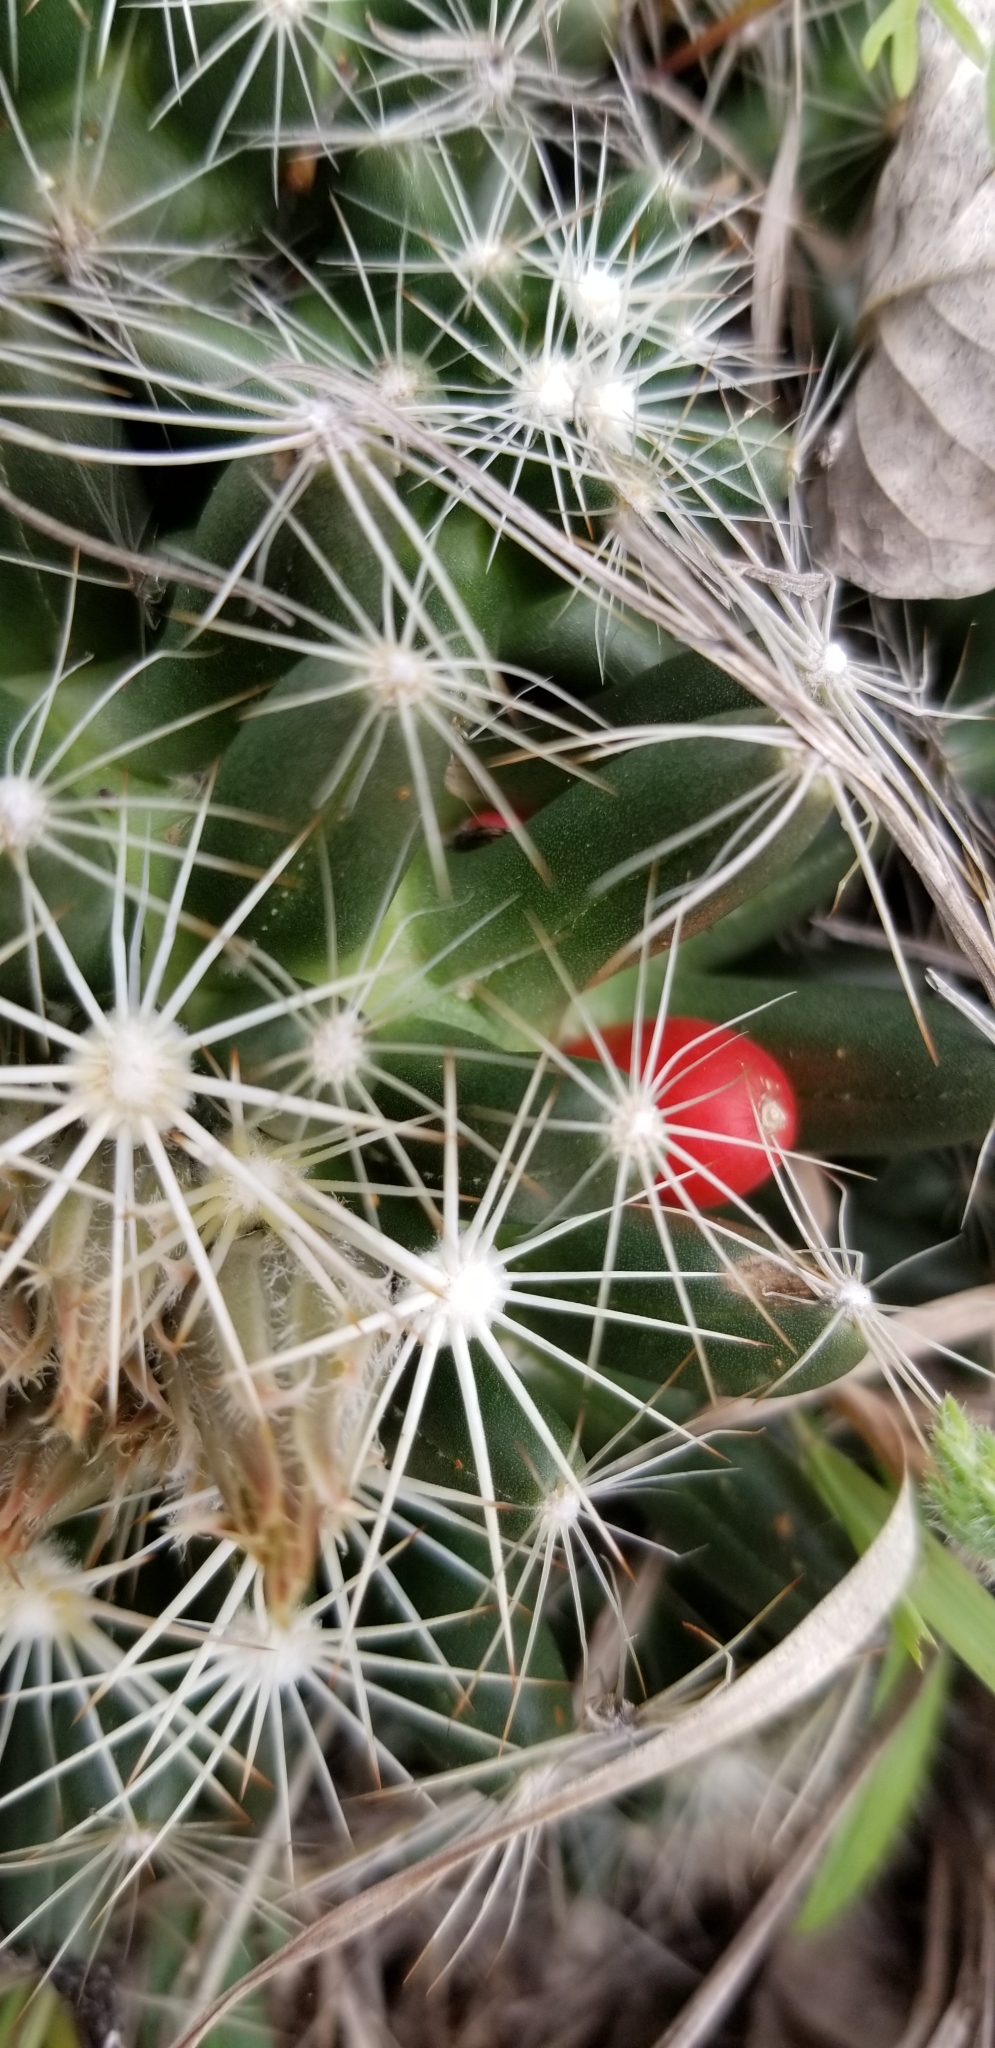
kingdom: Plantae
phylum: Tracheophyta
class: Magnoliopsida
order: Caryophyllales
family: Cactaceae
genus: Pelecyphora
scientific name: Pelecyphora missouriensis
